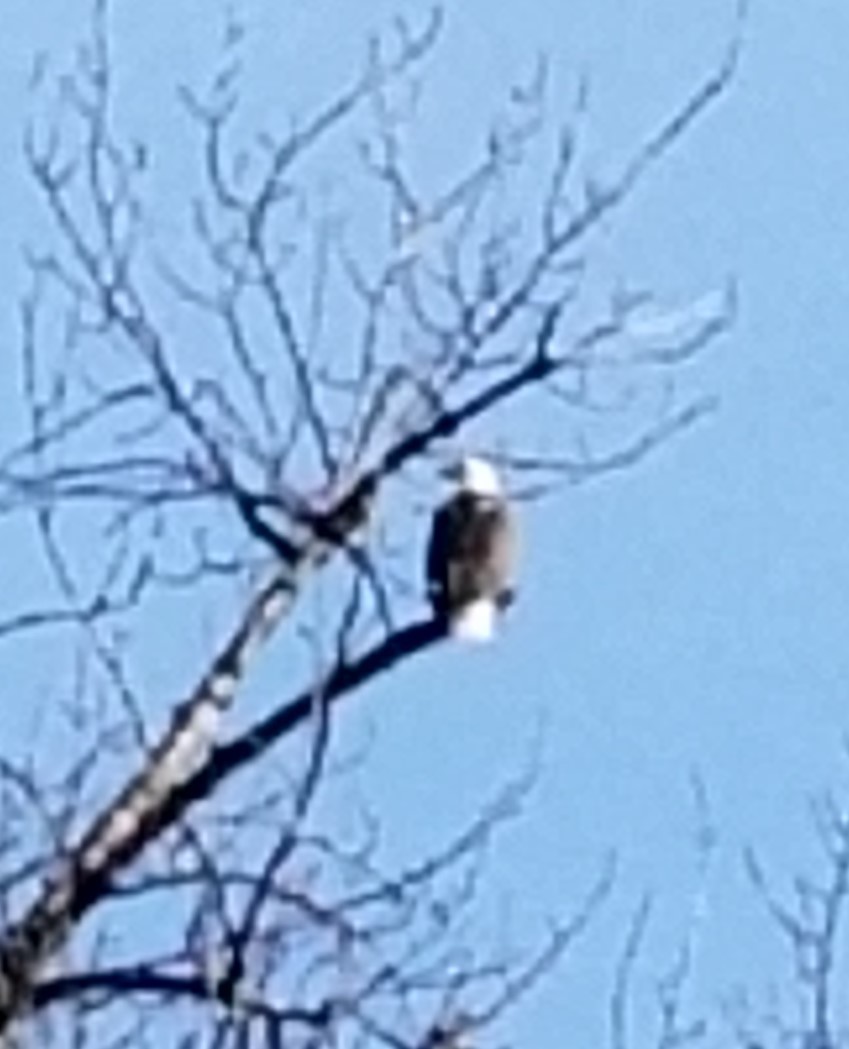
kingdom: Animalia
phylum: Chordata
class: Aves
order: Accipitriformes
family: Accipitridae
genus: Haliaeetus
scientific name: Haliaeetus leucocephalus
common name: Bald eagle
